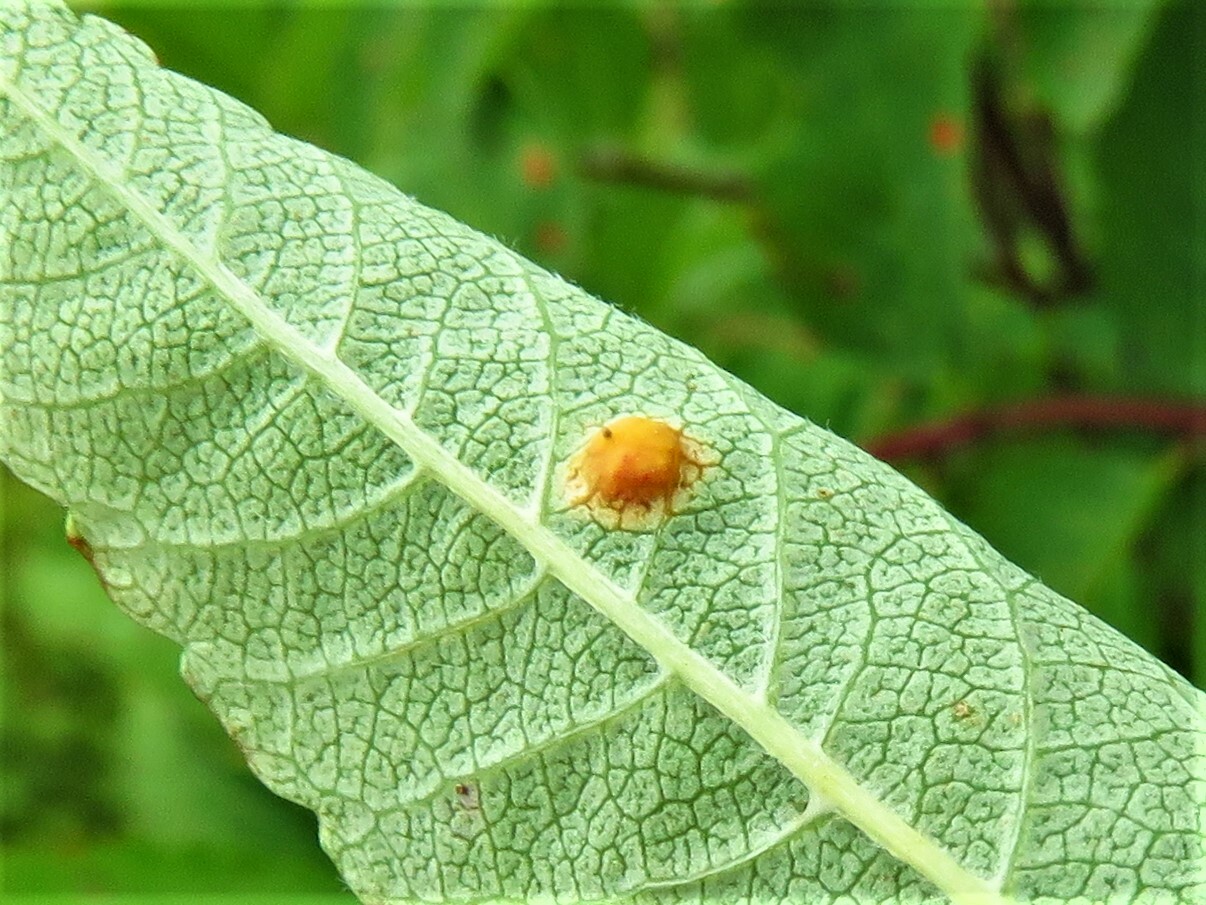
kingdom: Fungi
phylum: Basidiomycota
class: Pucciniomycetes
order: Pucciniales
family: Gymnosporangiaceae
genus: Gymnosporangium
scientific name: Gymnosporangium cornutum
